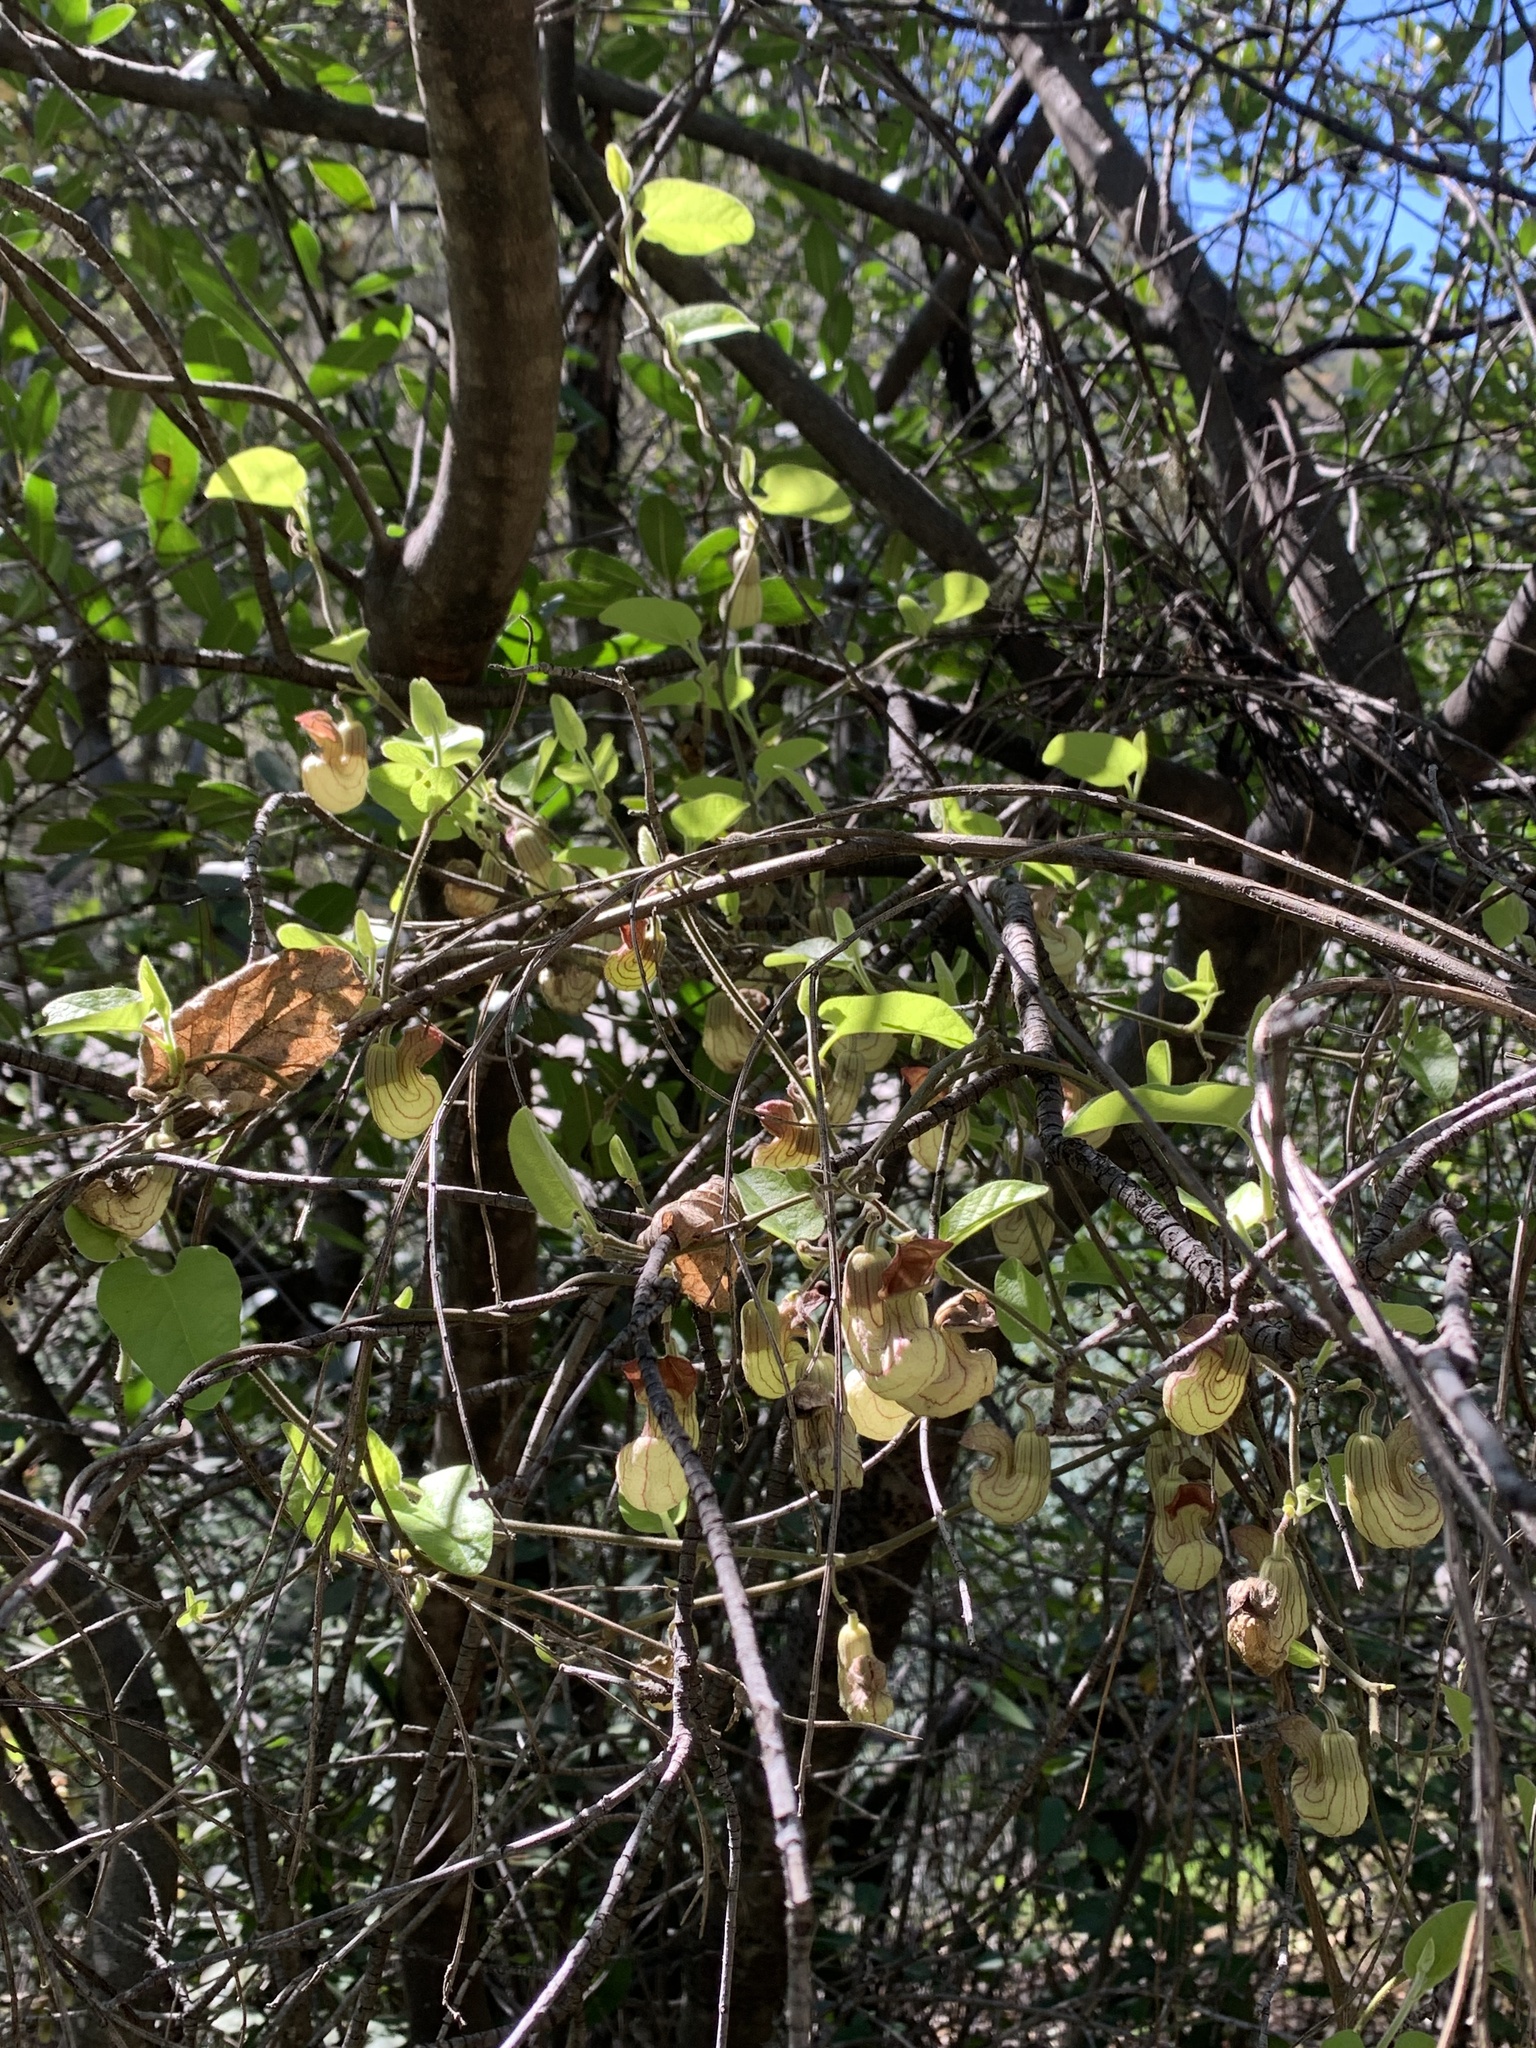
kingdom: Plantae
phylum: Tracheophyta
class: Magnoliopsida
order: Piperales
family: Aristolochiaceae
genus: Isotrema
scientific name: Isotrema californicum
